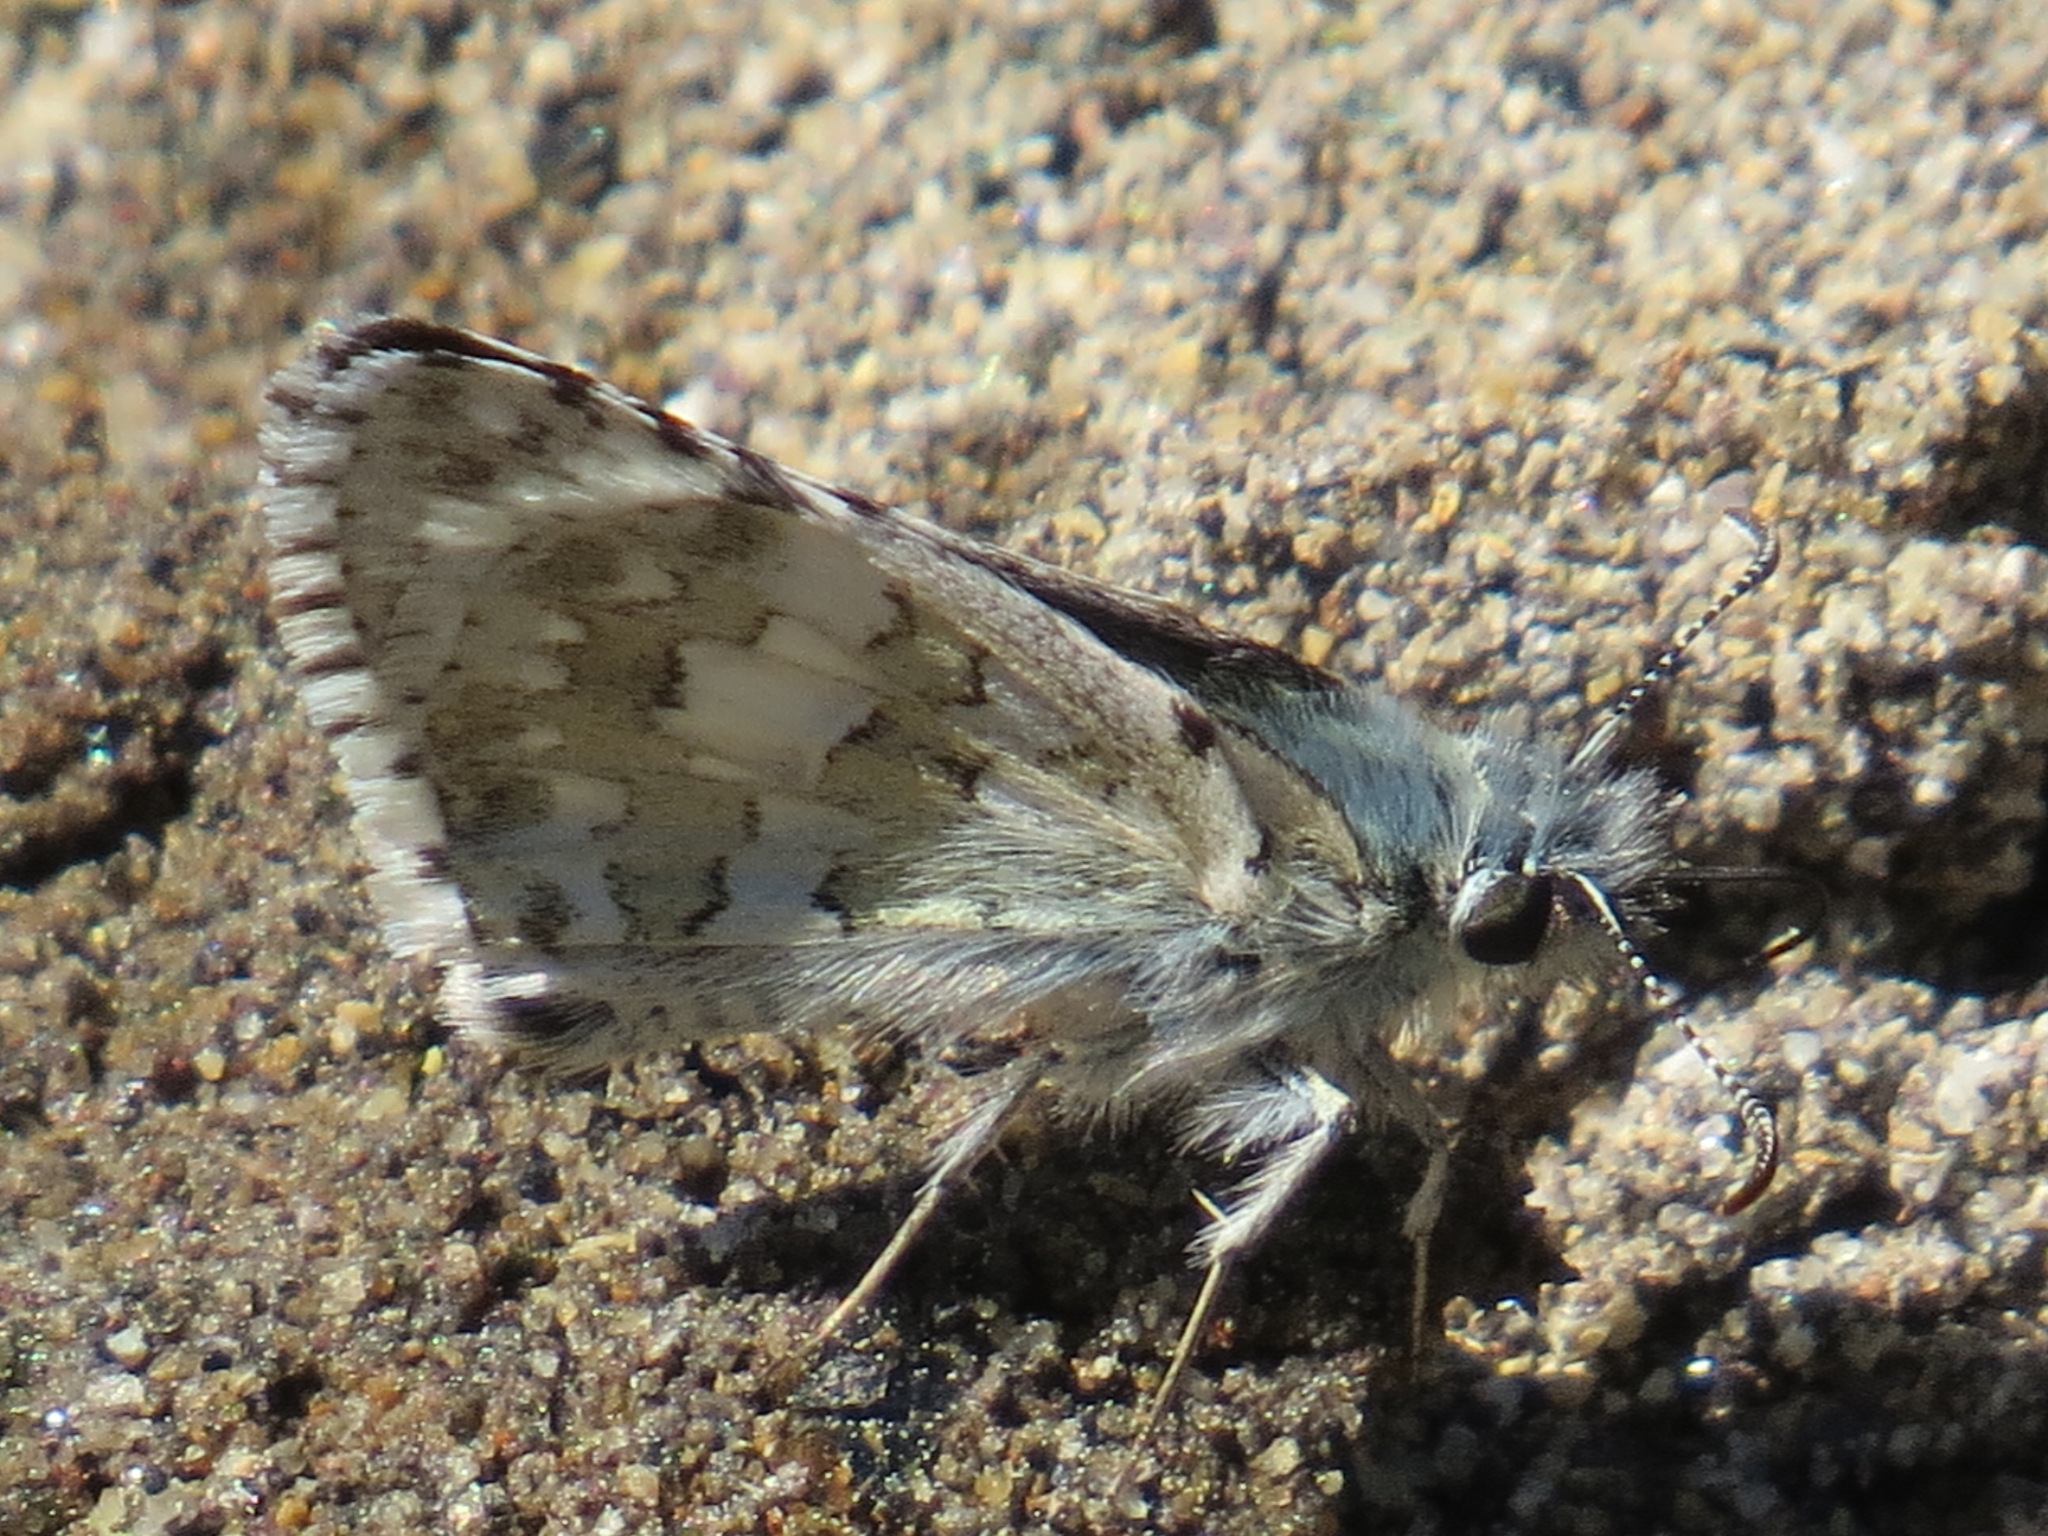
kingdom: Animalia
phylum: Arthropoda
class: Insecta
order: Lepidoptera
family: Hesperiidae
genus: Burnsius
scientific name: Burnsius communis
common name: Common checkered-skipper
